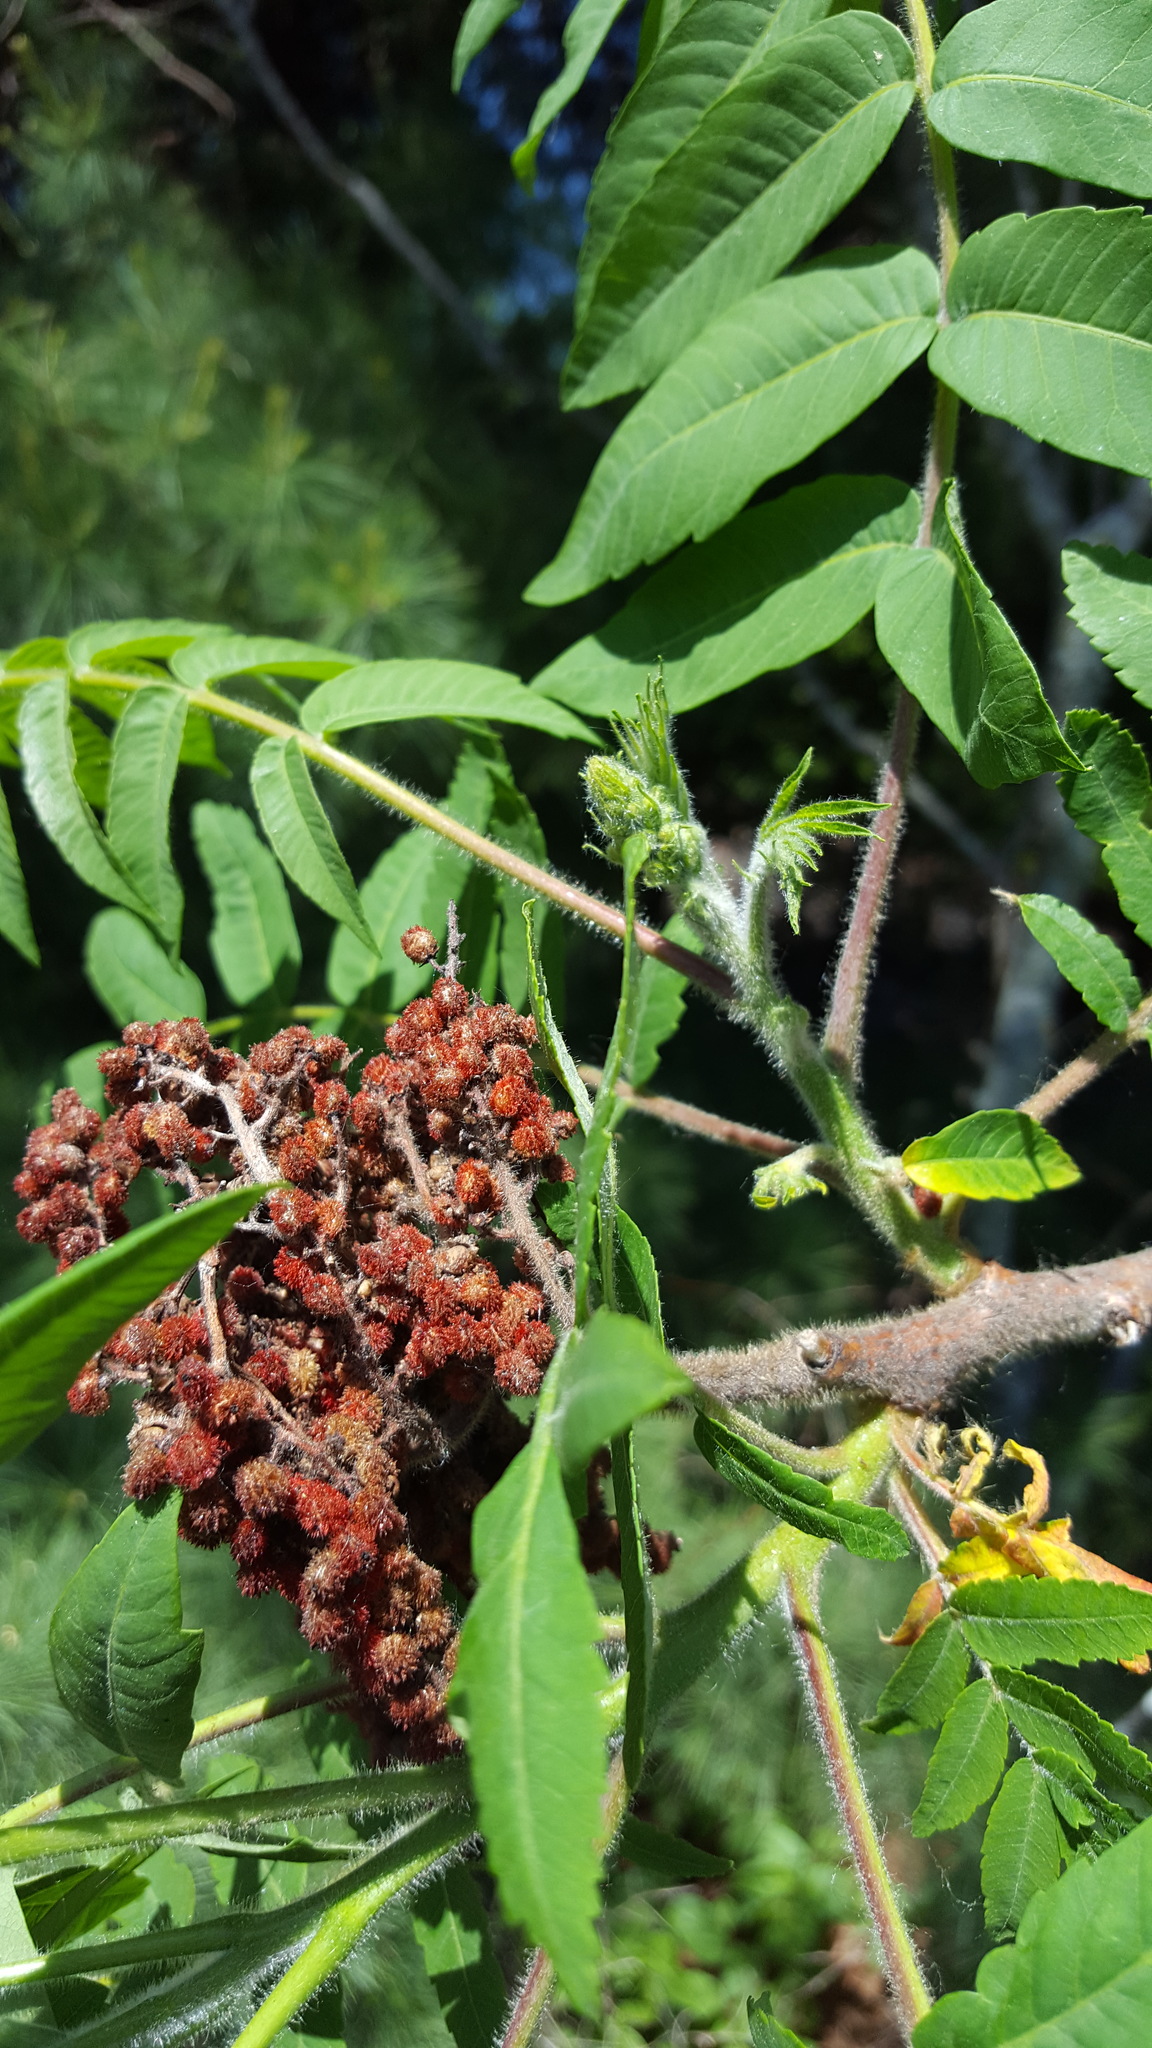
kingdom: Plantae
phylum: Tracheophyta
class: Magnoliopsida
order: Sapindales
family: Anacardiaceae
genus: Rhus
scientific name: Rhus typhina
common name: Staghorn sumac
